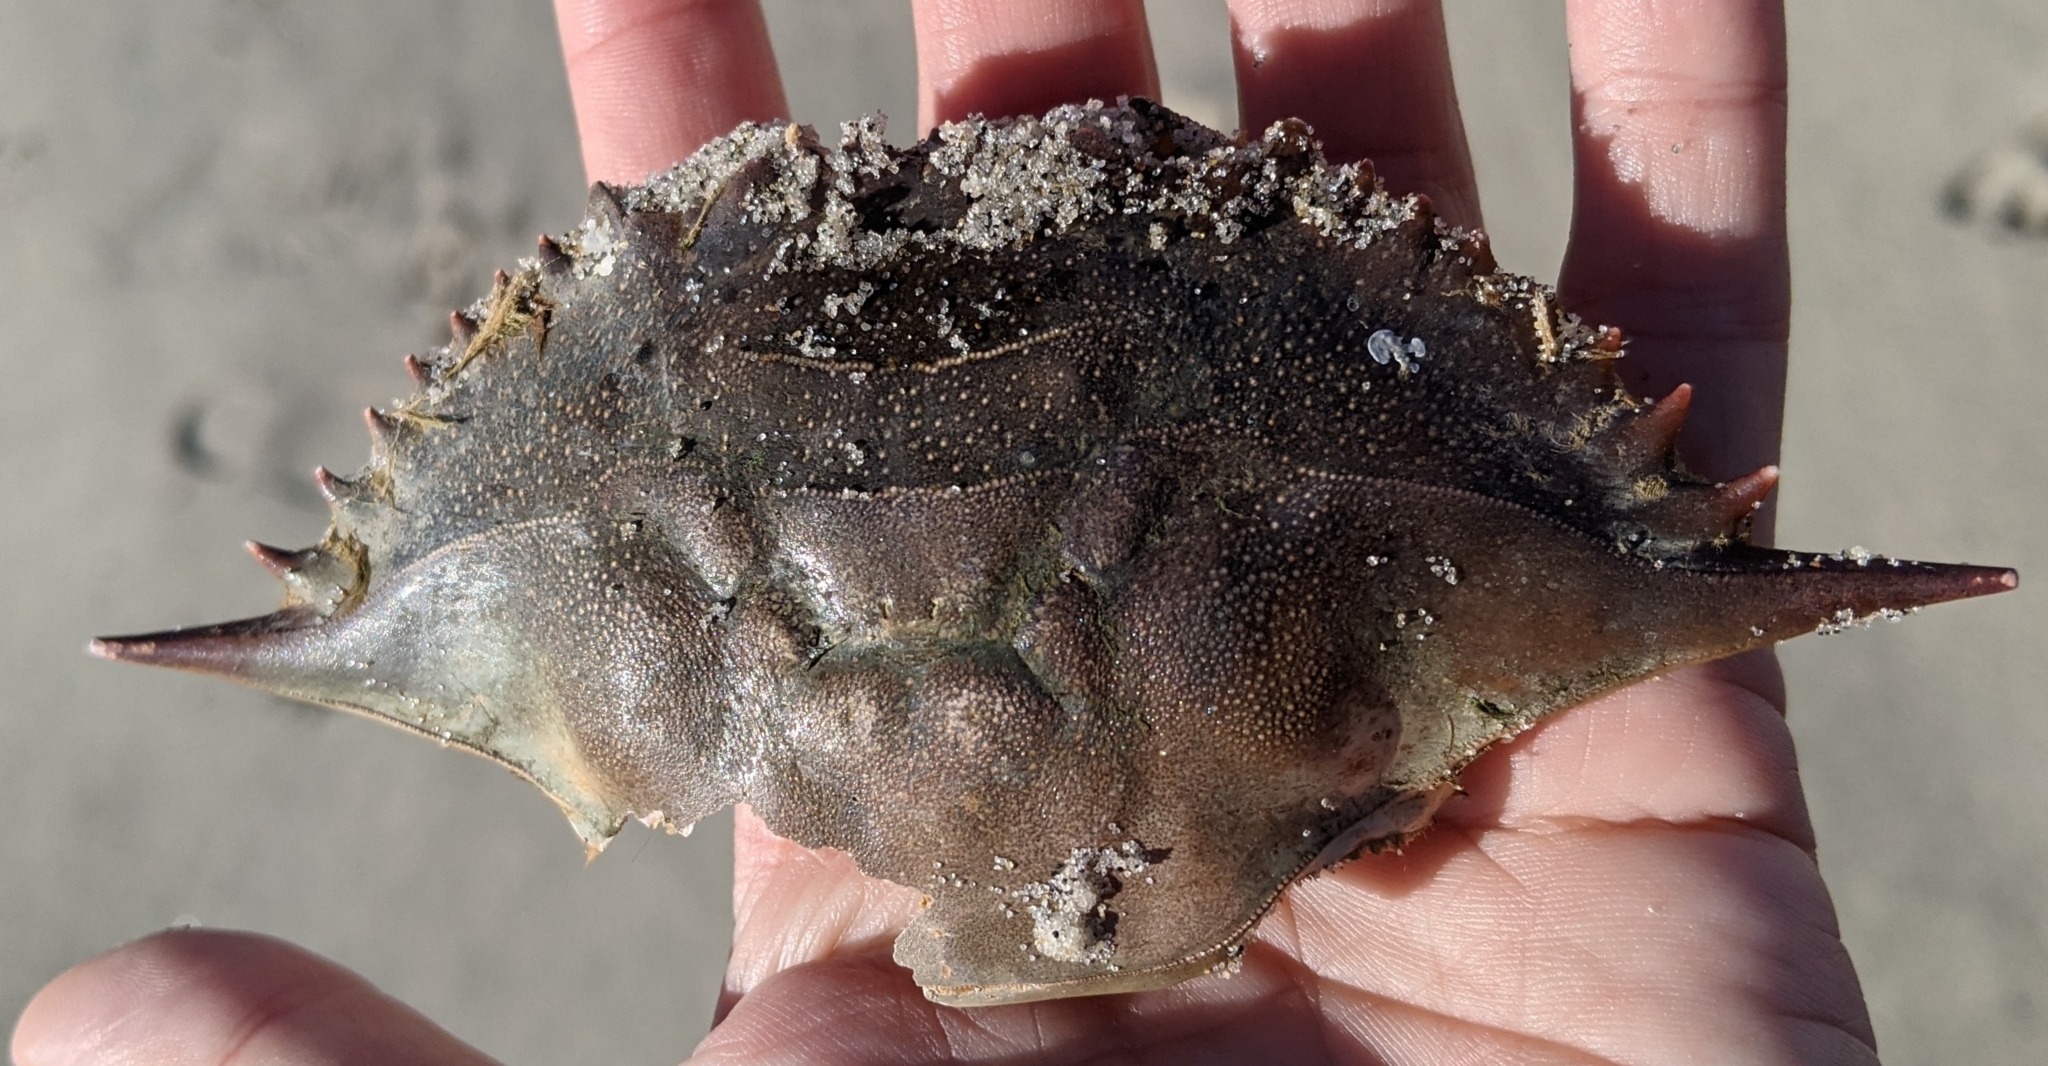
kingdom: Animalia
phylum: Arthropoda
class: Malacostraca
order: Decapoda
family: Portunidae
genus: Callinectes
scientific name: Callinectes sapidus
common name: Blue crab
